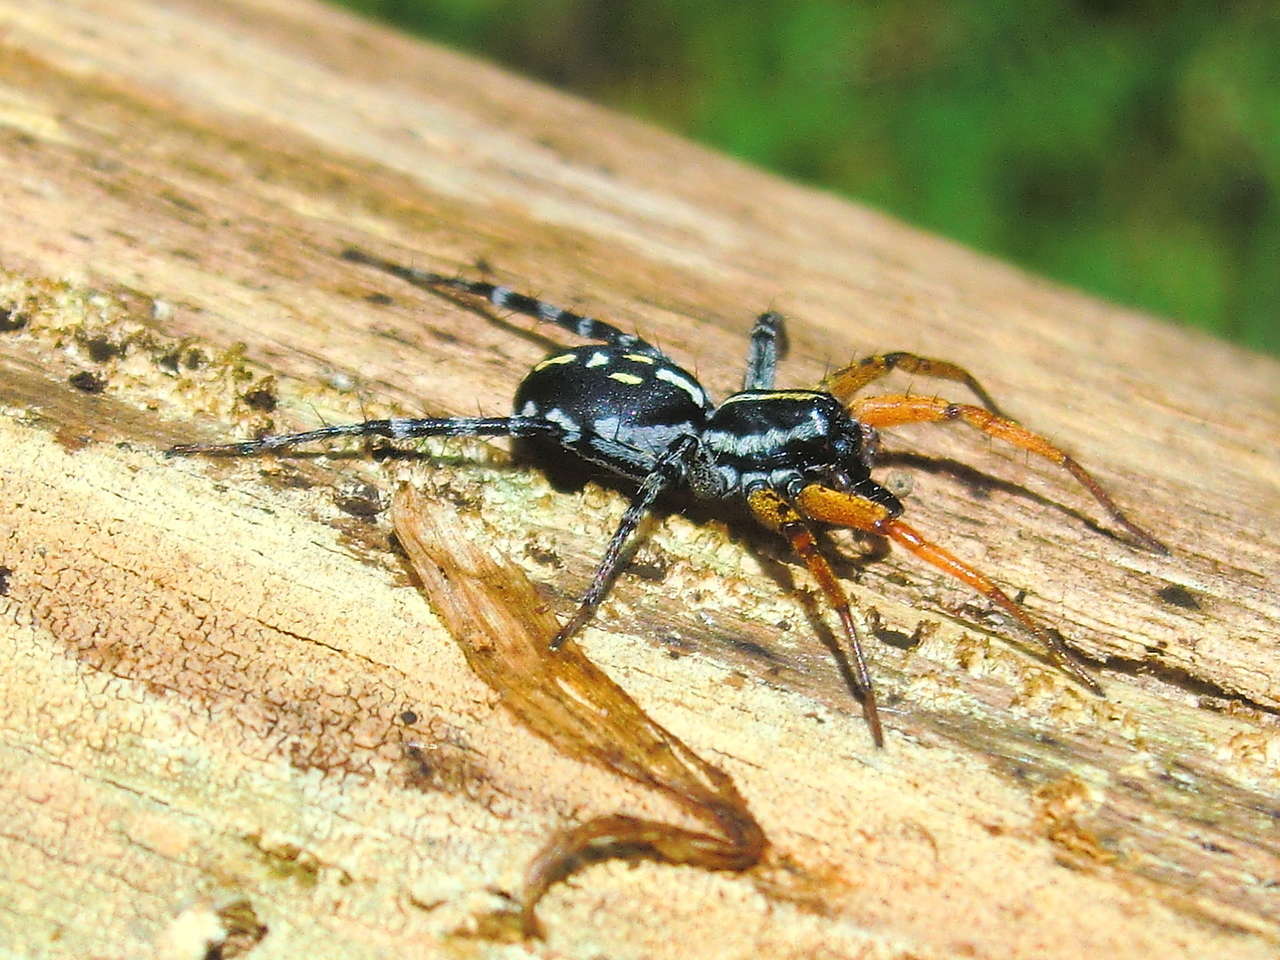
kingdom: Animalia
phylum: Arthropoda
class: Arachnida
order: Araneae
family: Corinnidae
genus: Nyssus
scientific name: Nyssus coloripes
